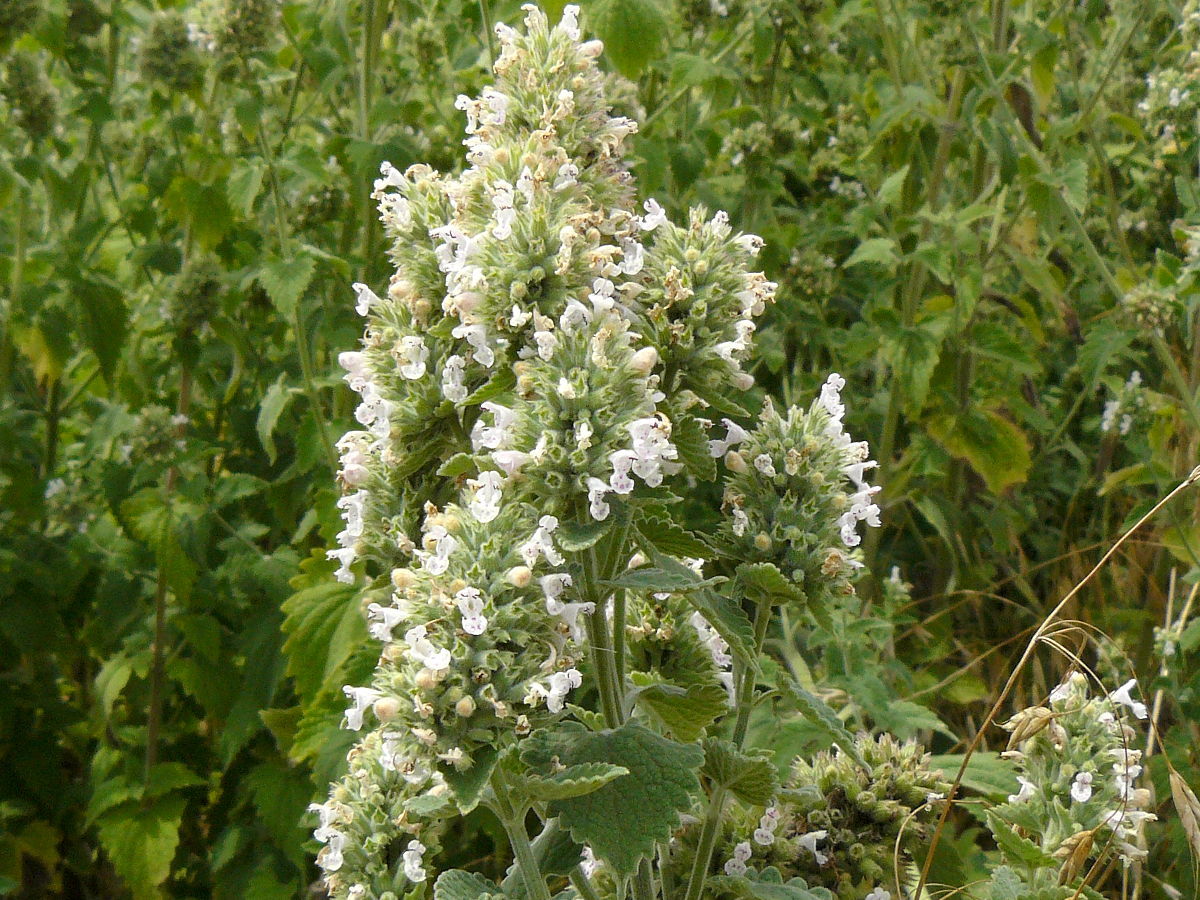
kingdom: Plantae
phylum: Tracheophyta
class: Magnoliopsida
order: Lamiales
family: Lamiaceae
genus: Nepeta
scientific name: Nepeta cataria
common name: Catnip
